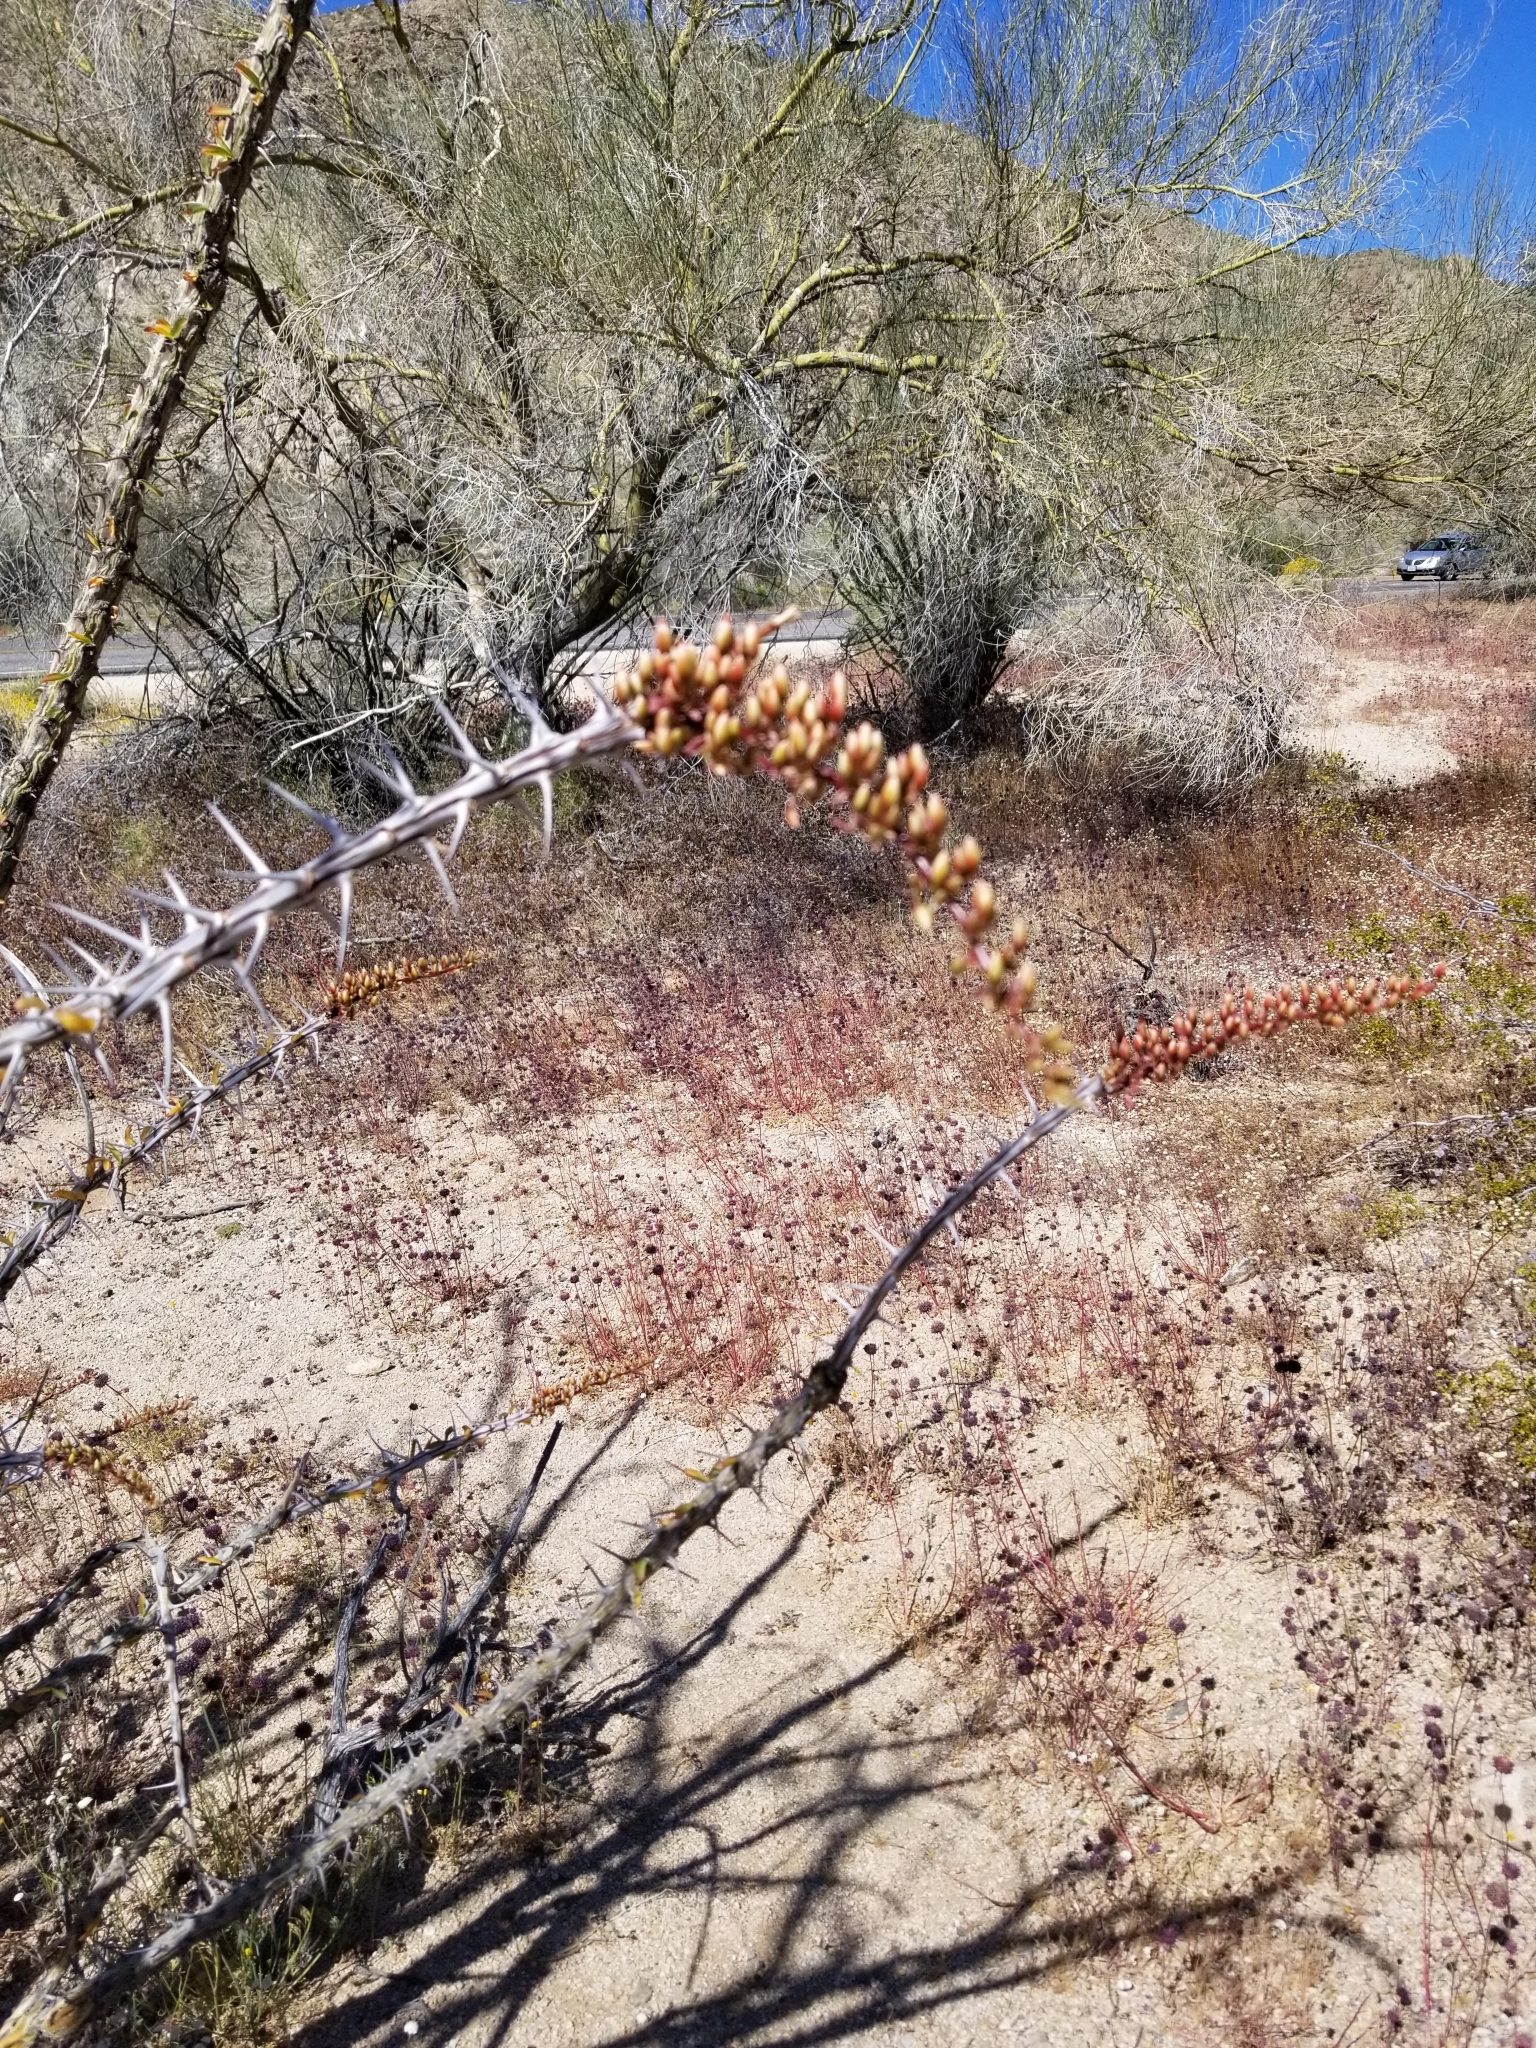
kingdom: Plantae
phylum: Tracheophyta
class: Magnoliopsida
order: Ericales
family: Fouquieriaceae
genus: Fouquieria
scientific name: Fouquieria splendens
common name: Vine-cactus
